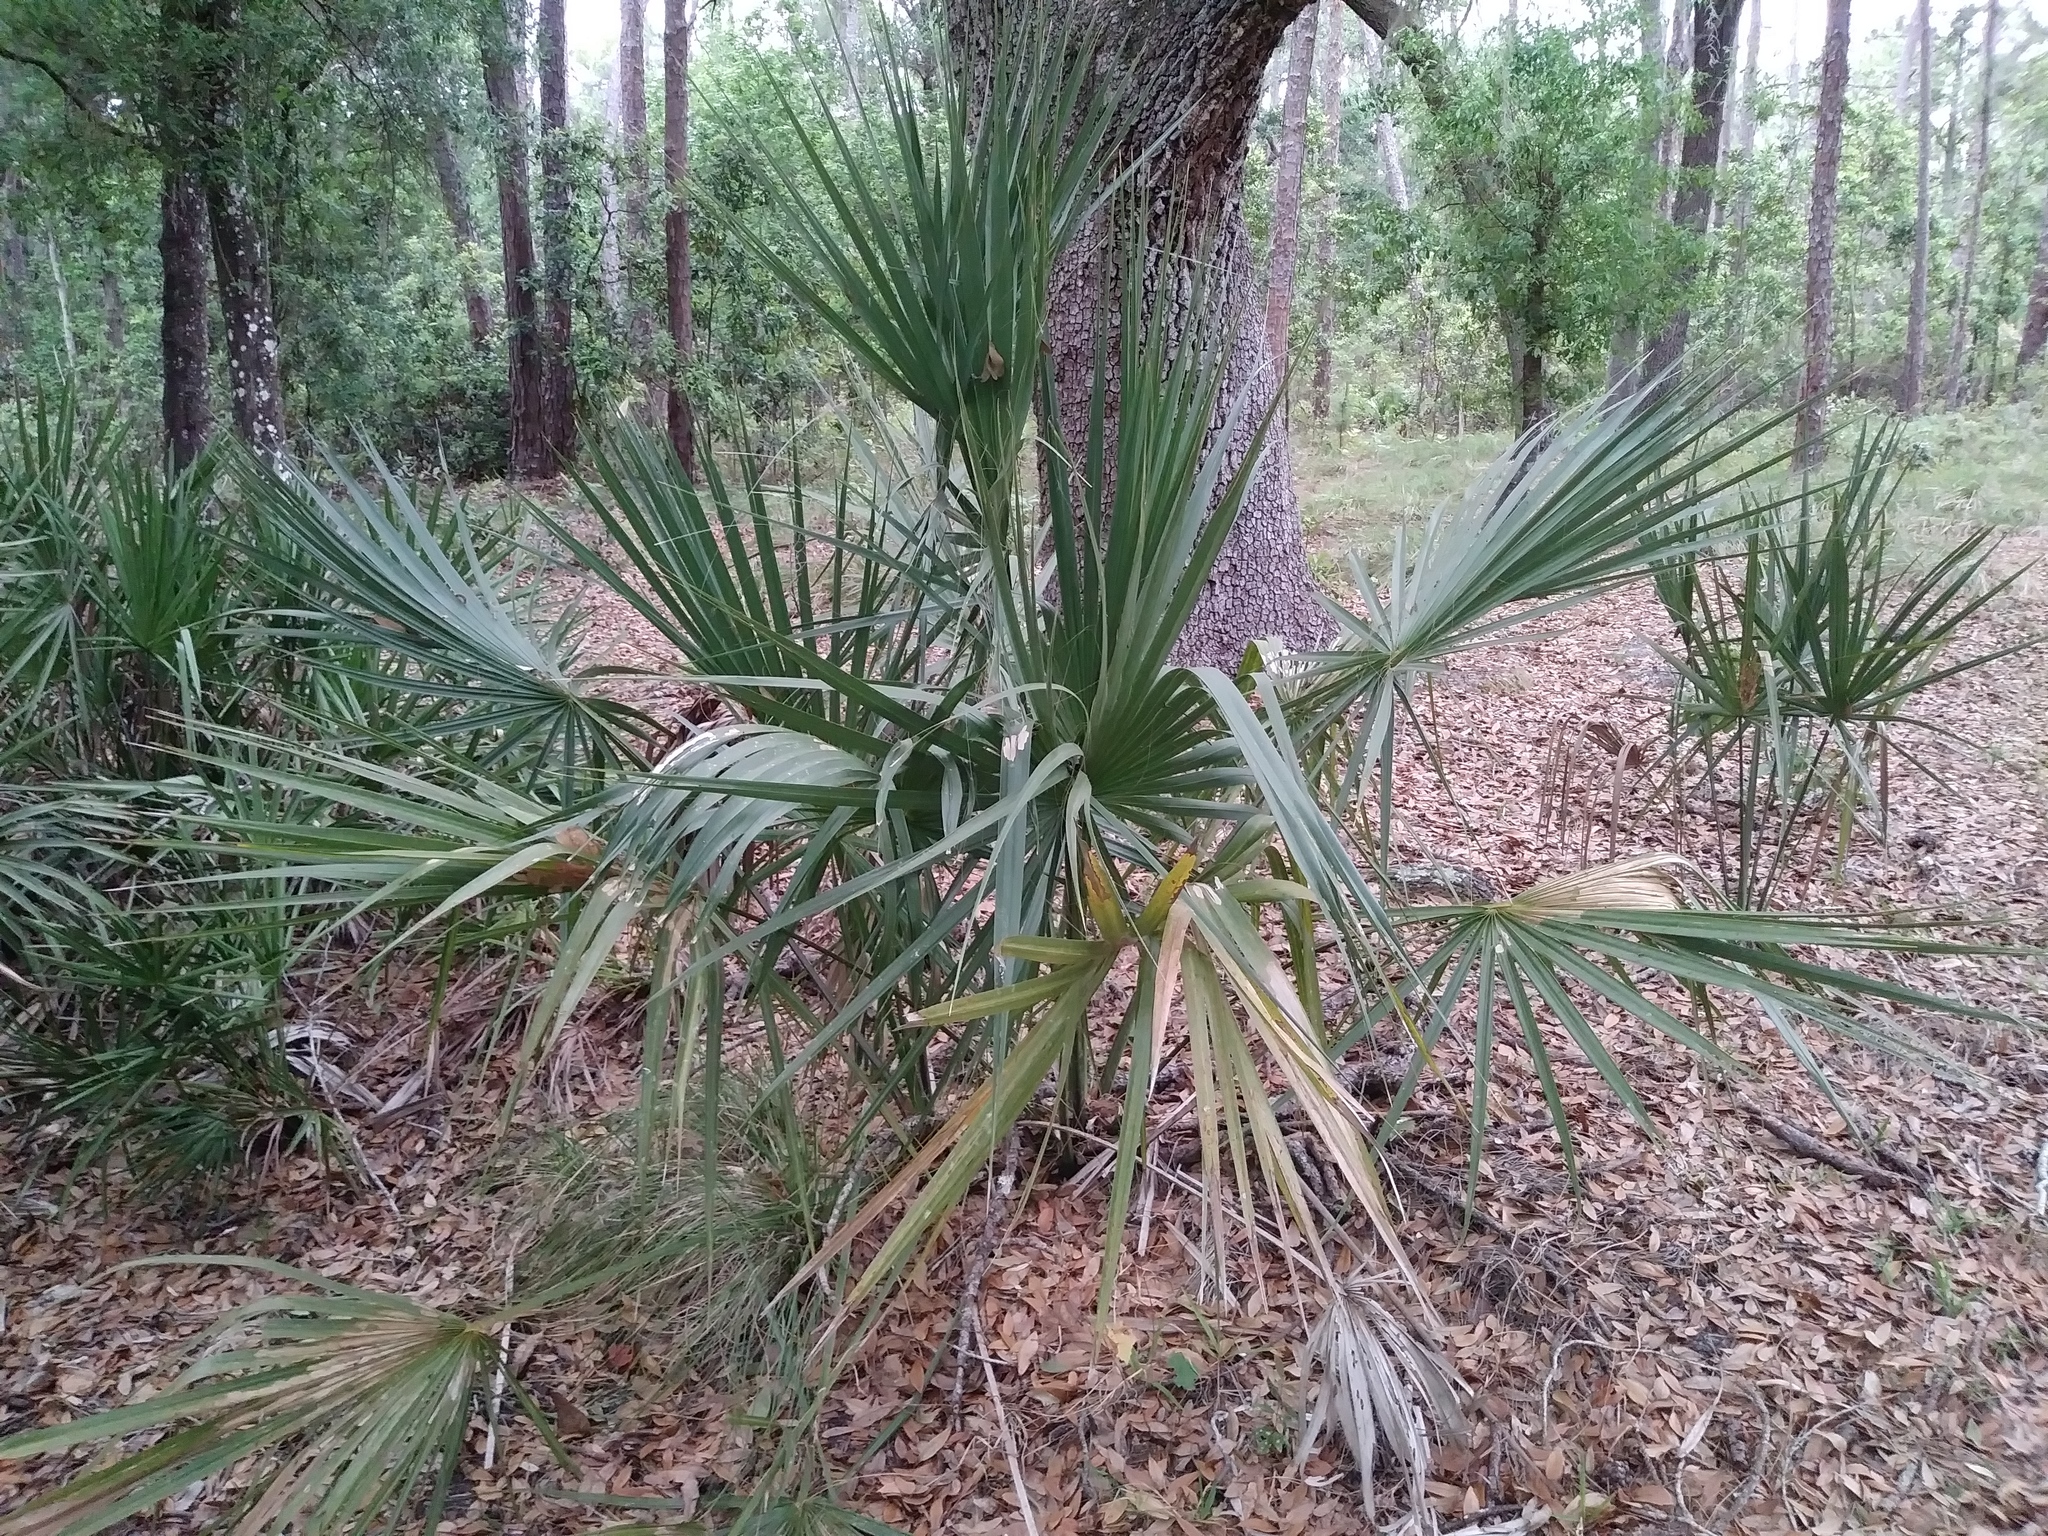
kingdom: Plantae
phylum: Tracheophyta
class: Liliopsida
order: Arecales
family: Arecaceae
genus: Sabal
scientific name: Sabal palmetto
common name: Blue palmetto
